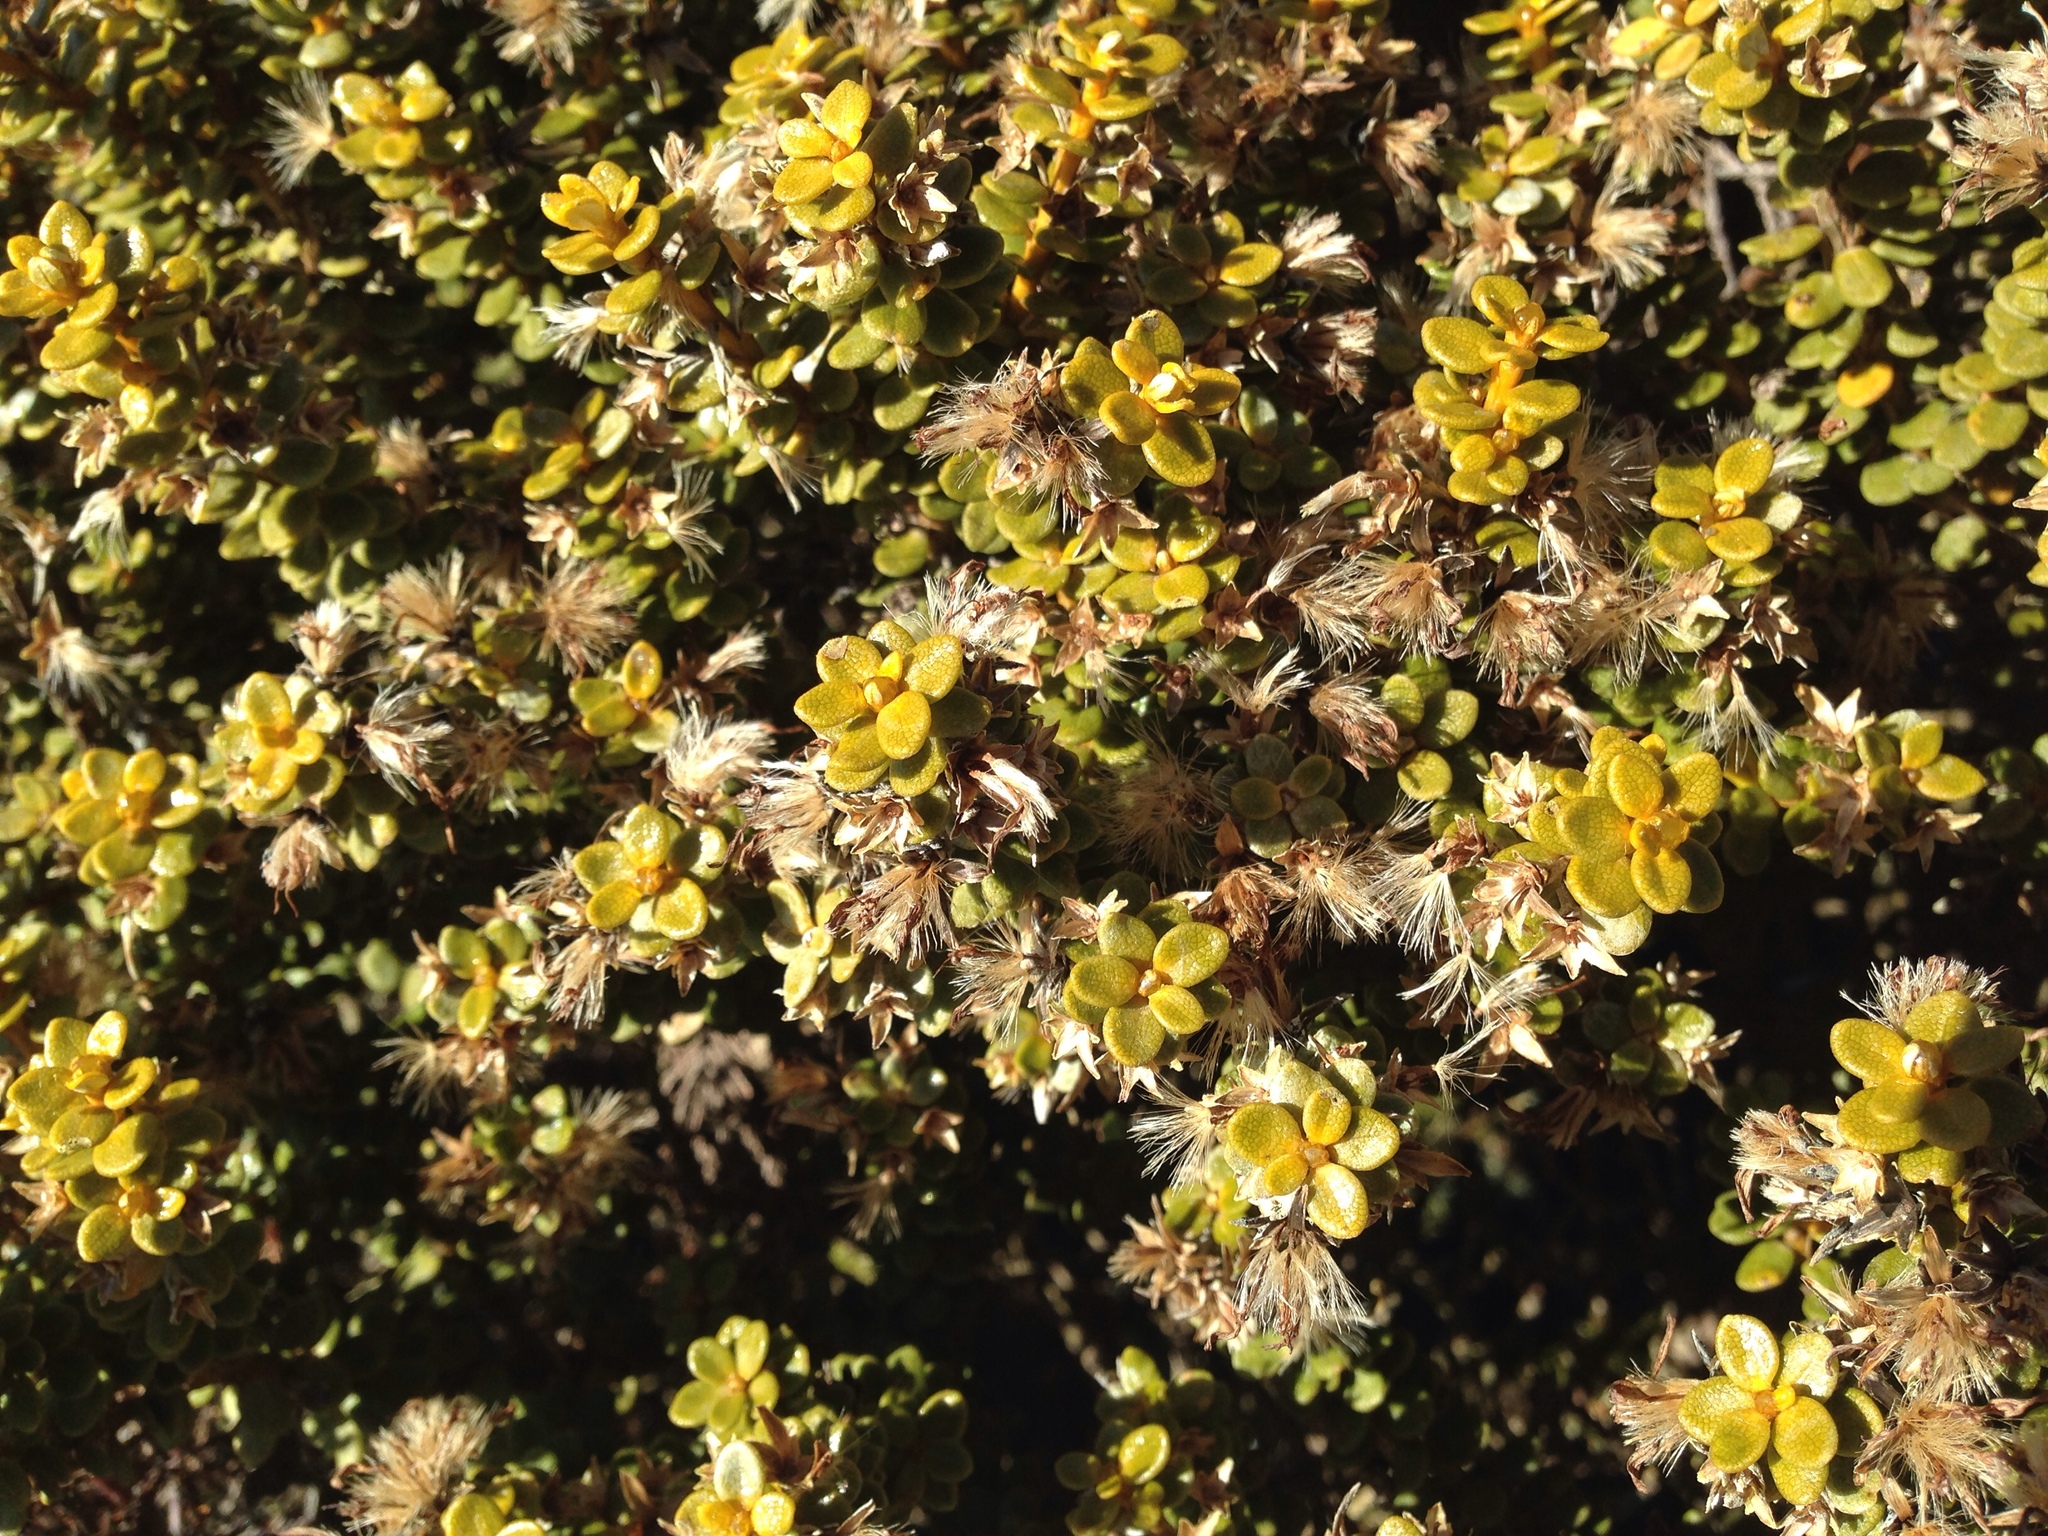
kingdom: Plantae
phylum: Tracheophyta
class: Magnoliopsida
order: Asterales
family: Asteraceae
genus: Olearia
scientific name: Olearia nummularifolia
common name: Sticky daisybush
